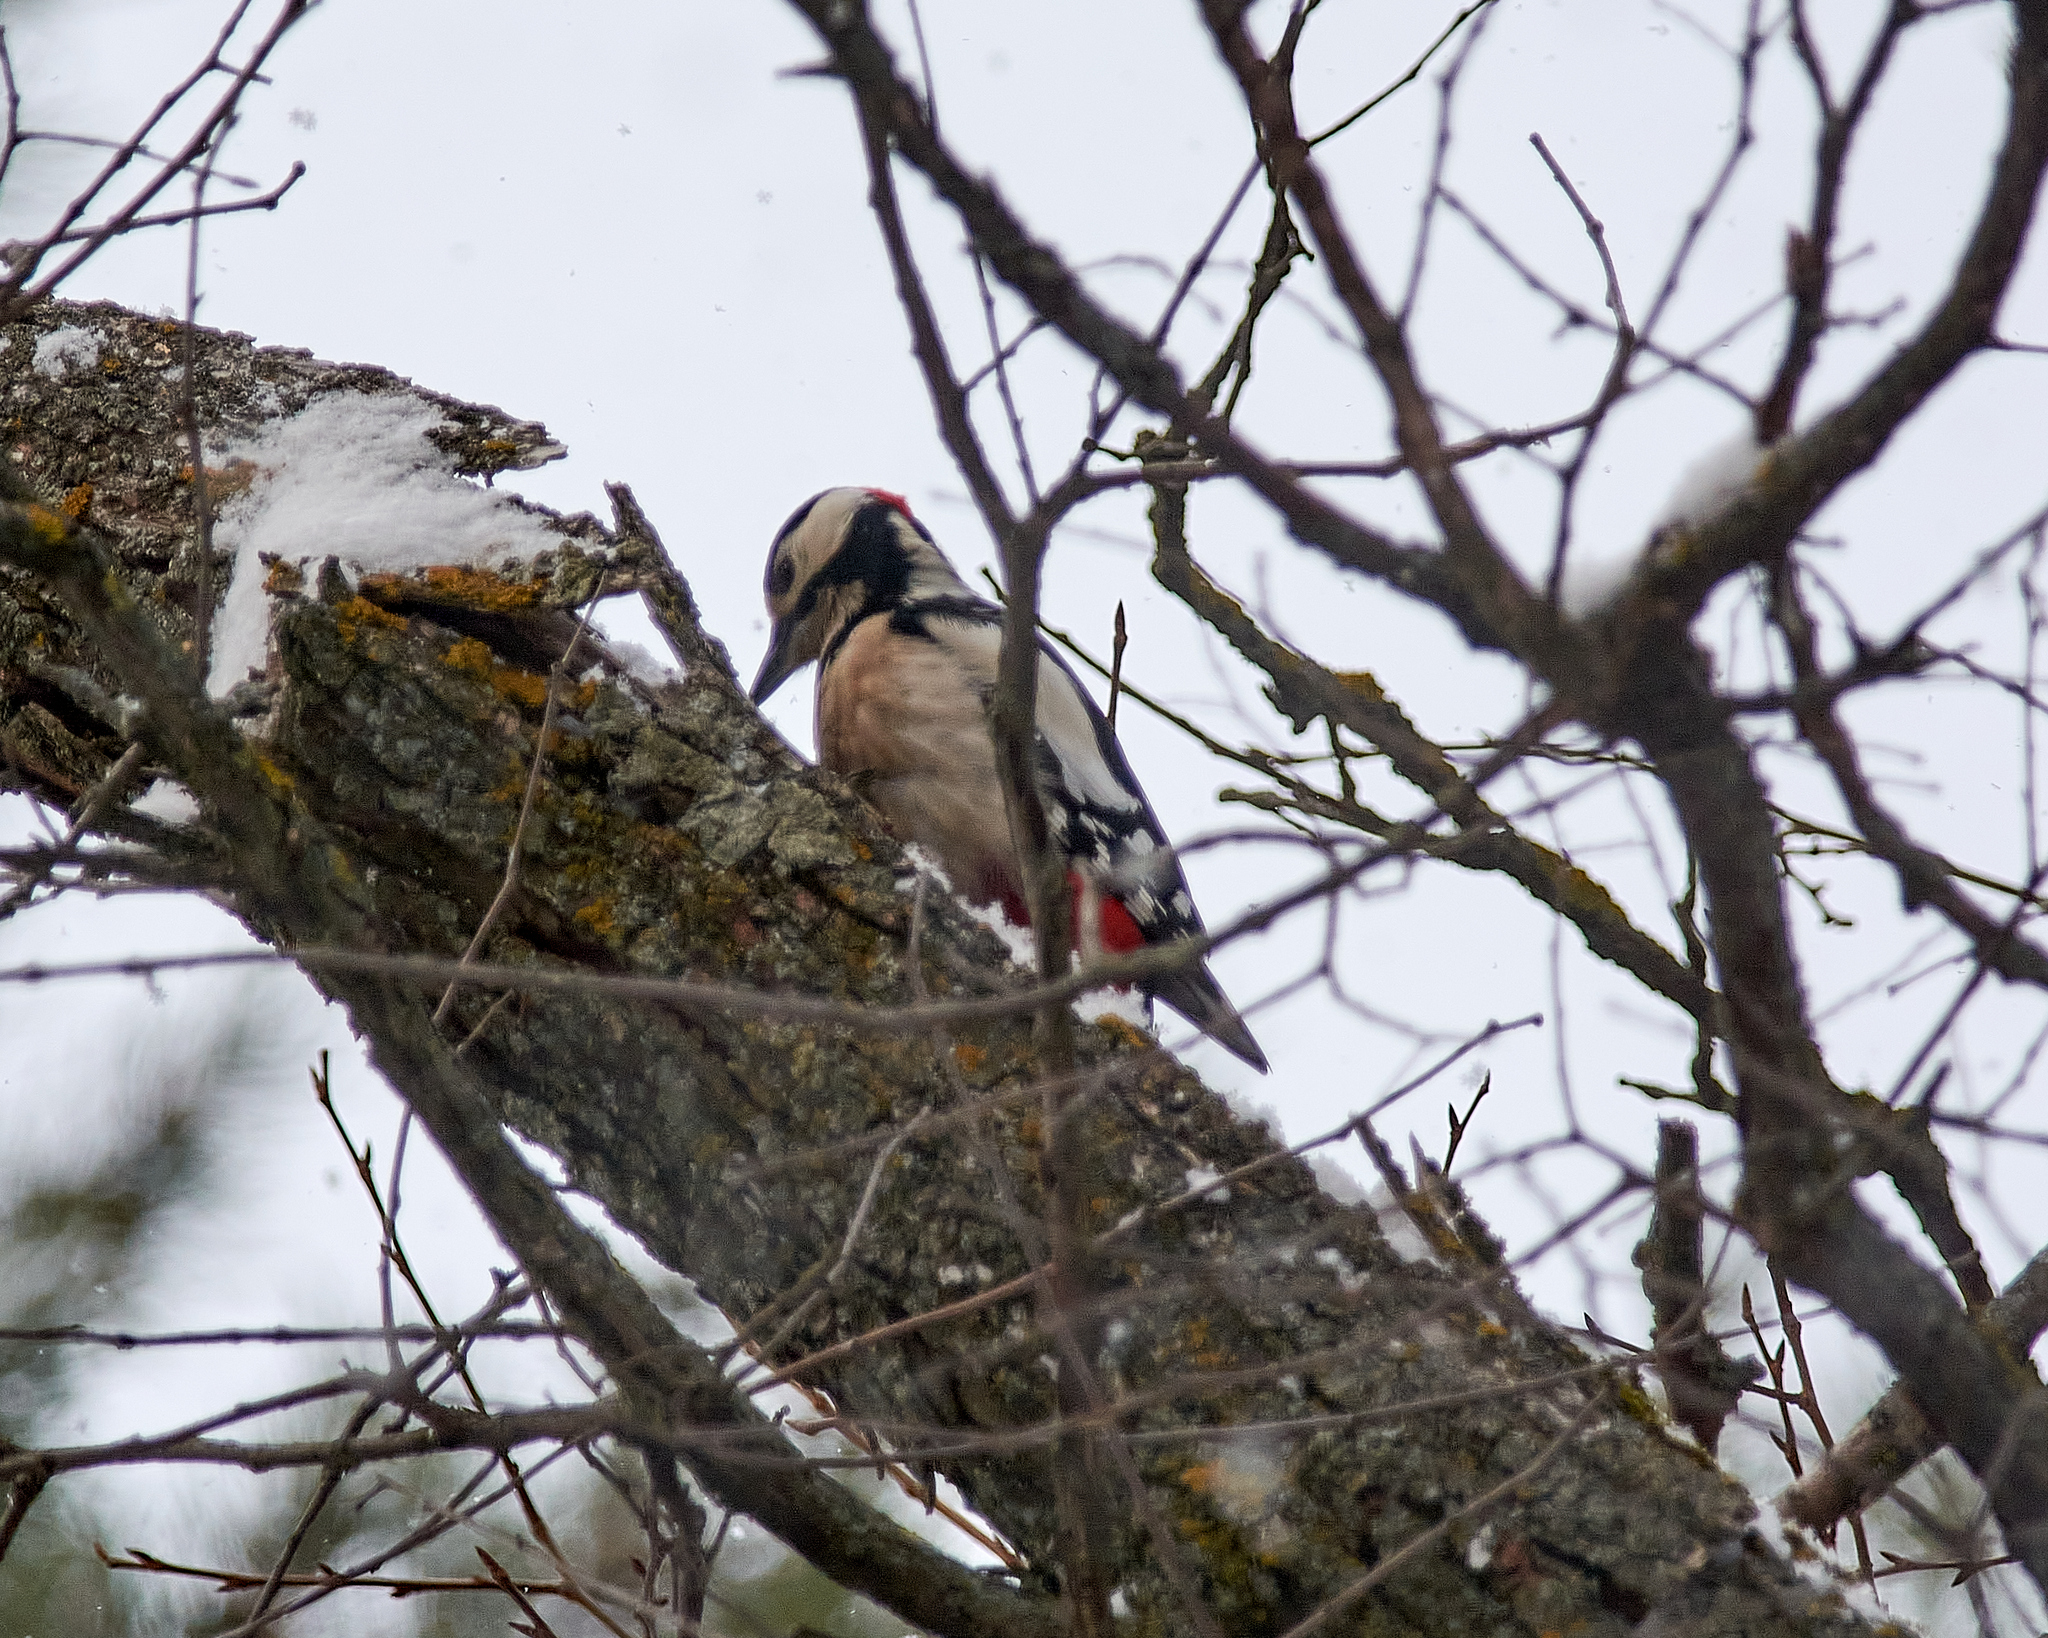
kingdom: Animalia
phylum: Chordata
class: Aves
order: Piciformes
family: Picidae
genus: Dendrocopos
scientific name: Dendrocopos major
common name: Great spotted woodpecker
